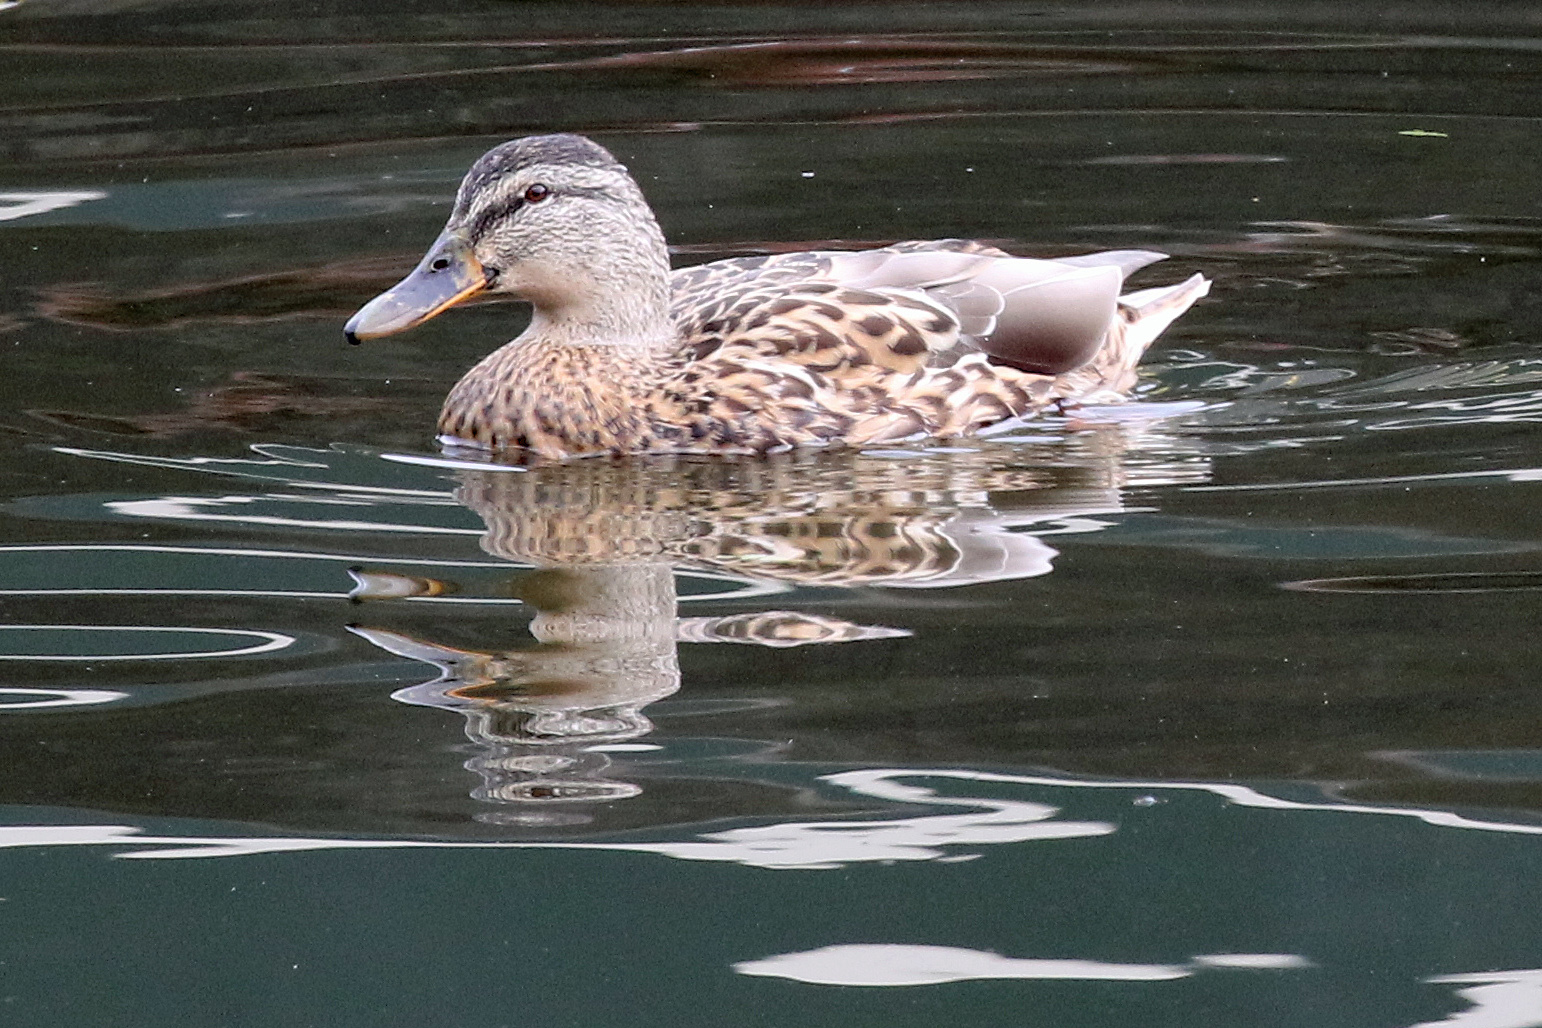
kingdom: Animalia
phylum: Chordata
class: Aves
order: Anseriformes
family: Anatidae
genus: Anas
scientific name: Anas platyrhynchos
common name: Mallard
